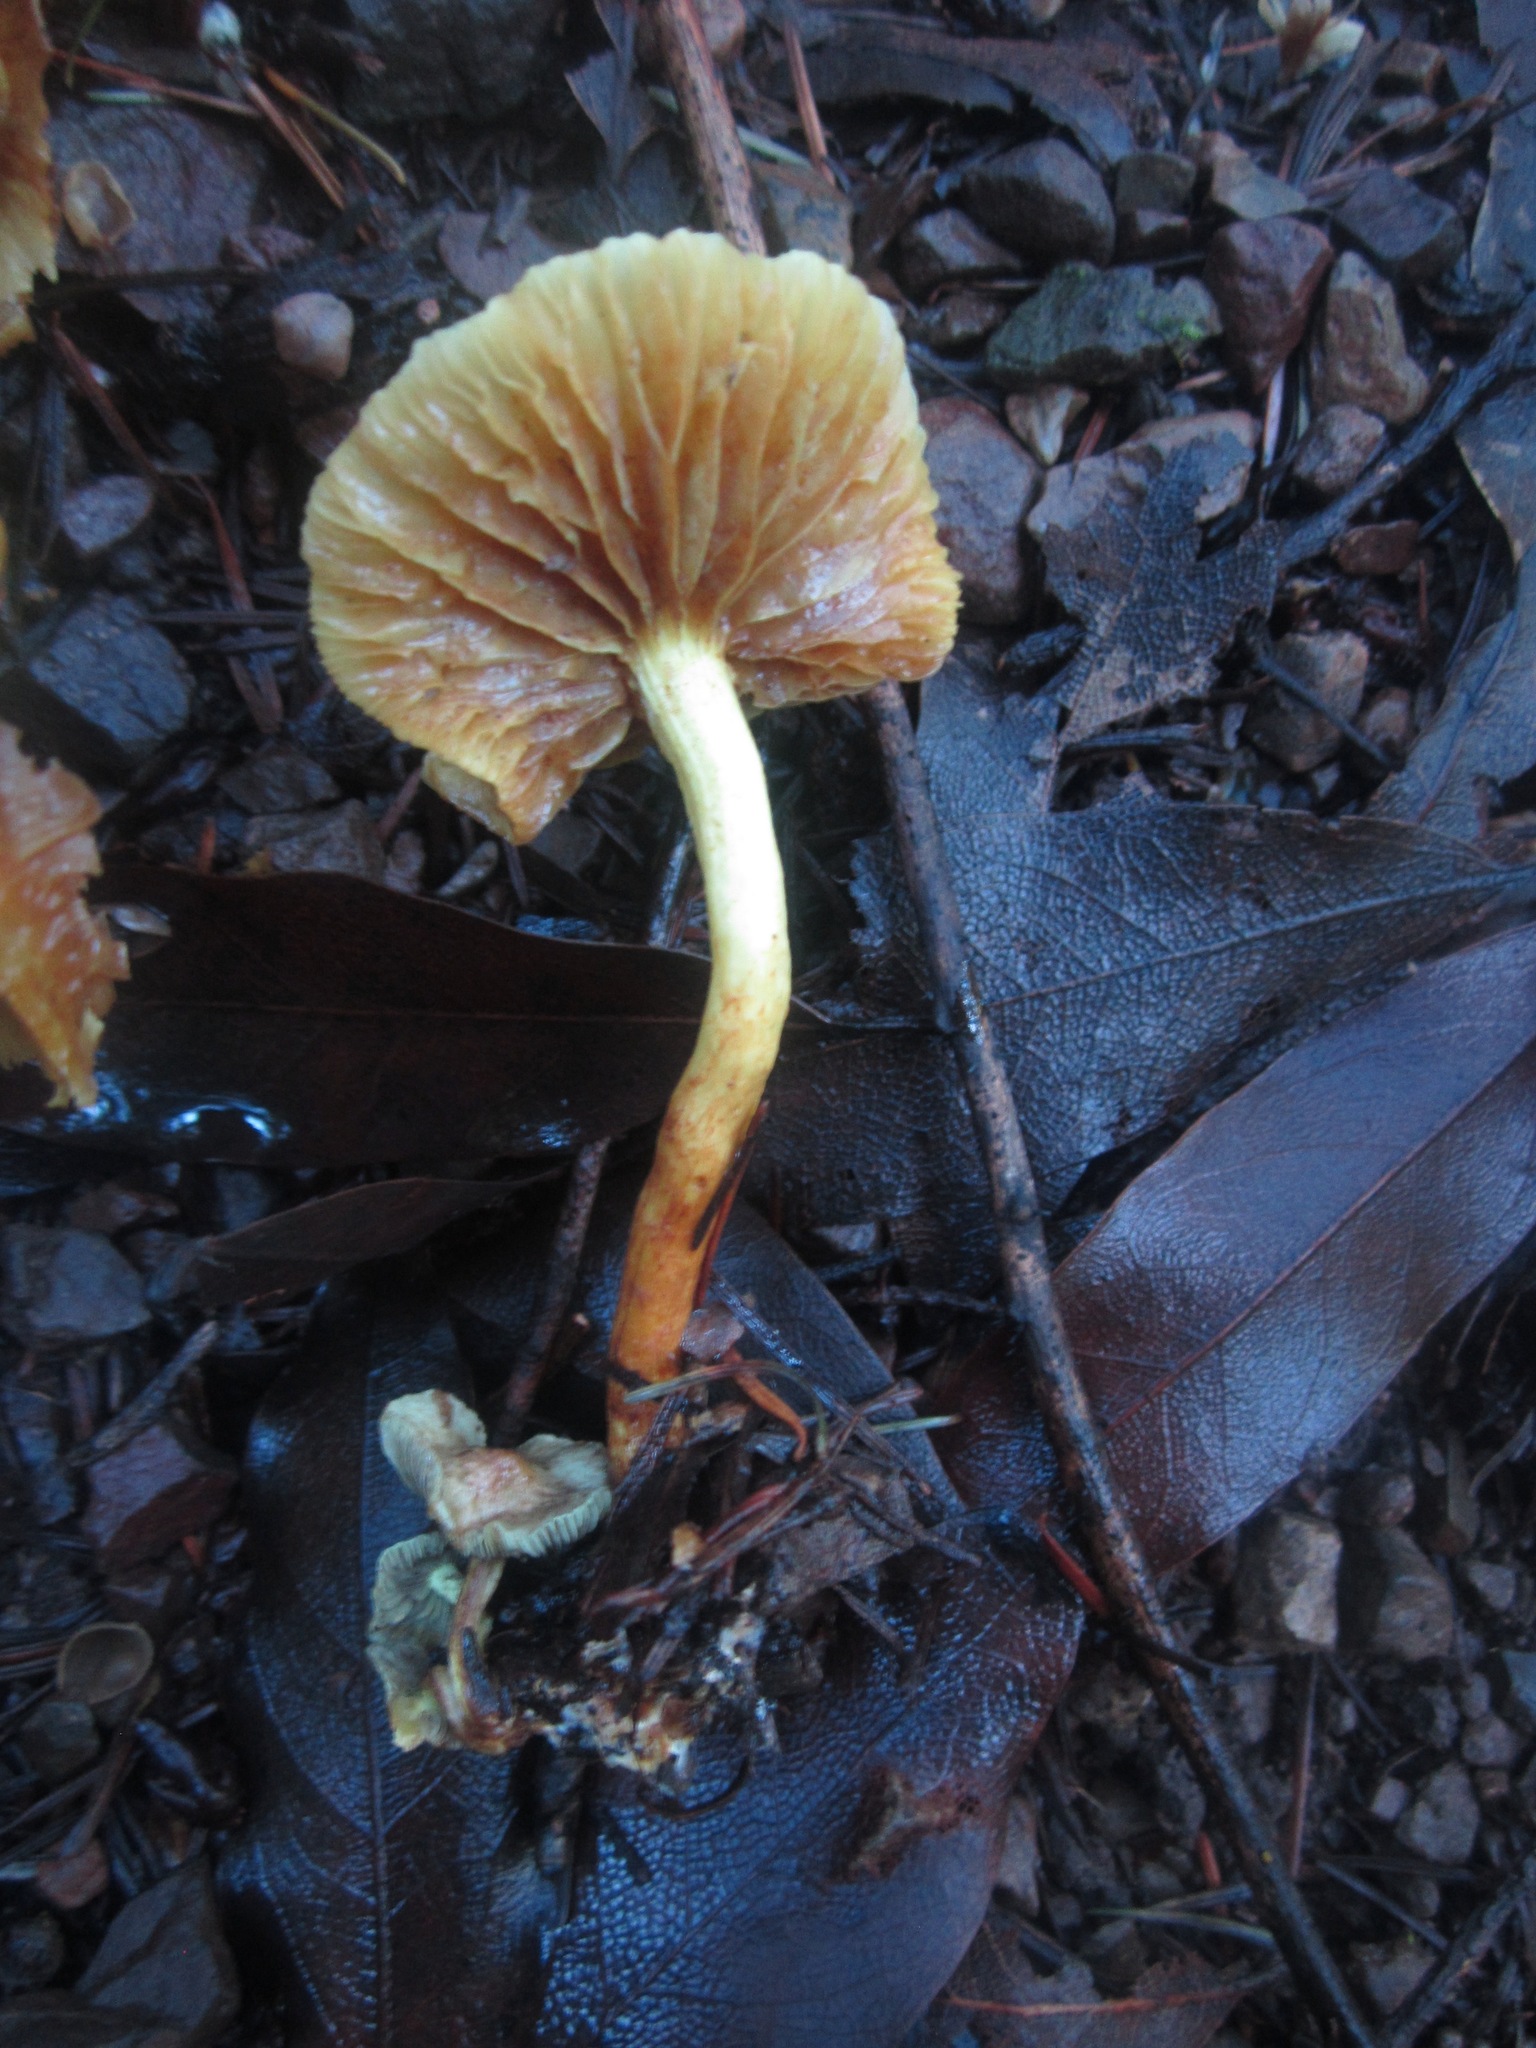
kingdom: Fungi
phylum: Basidiomycota
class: Agaricomycetes
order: Agaricales
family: Strophariaceae
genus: Hypholoma
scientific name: Hypholoma fasciculare
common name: Sulphur tuft
